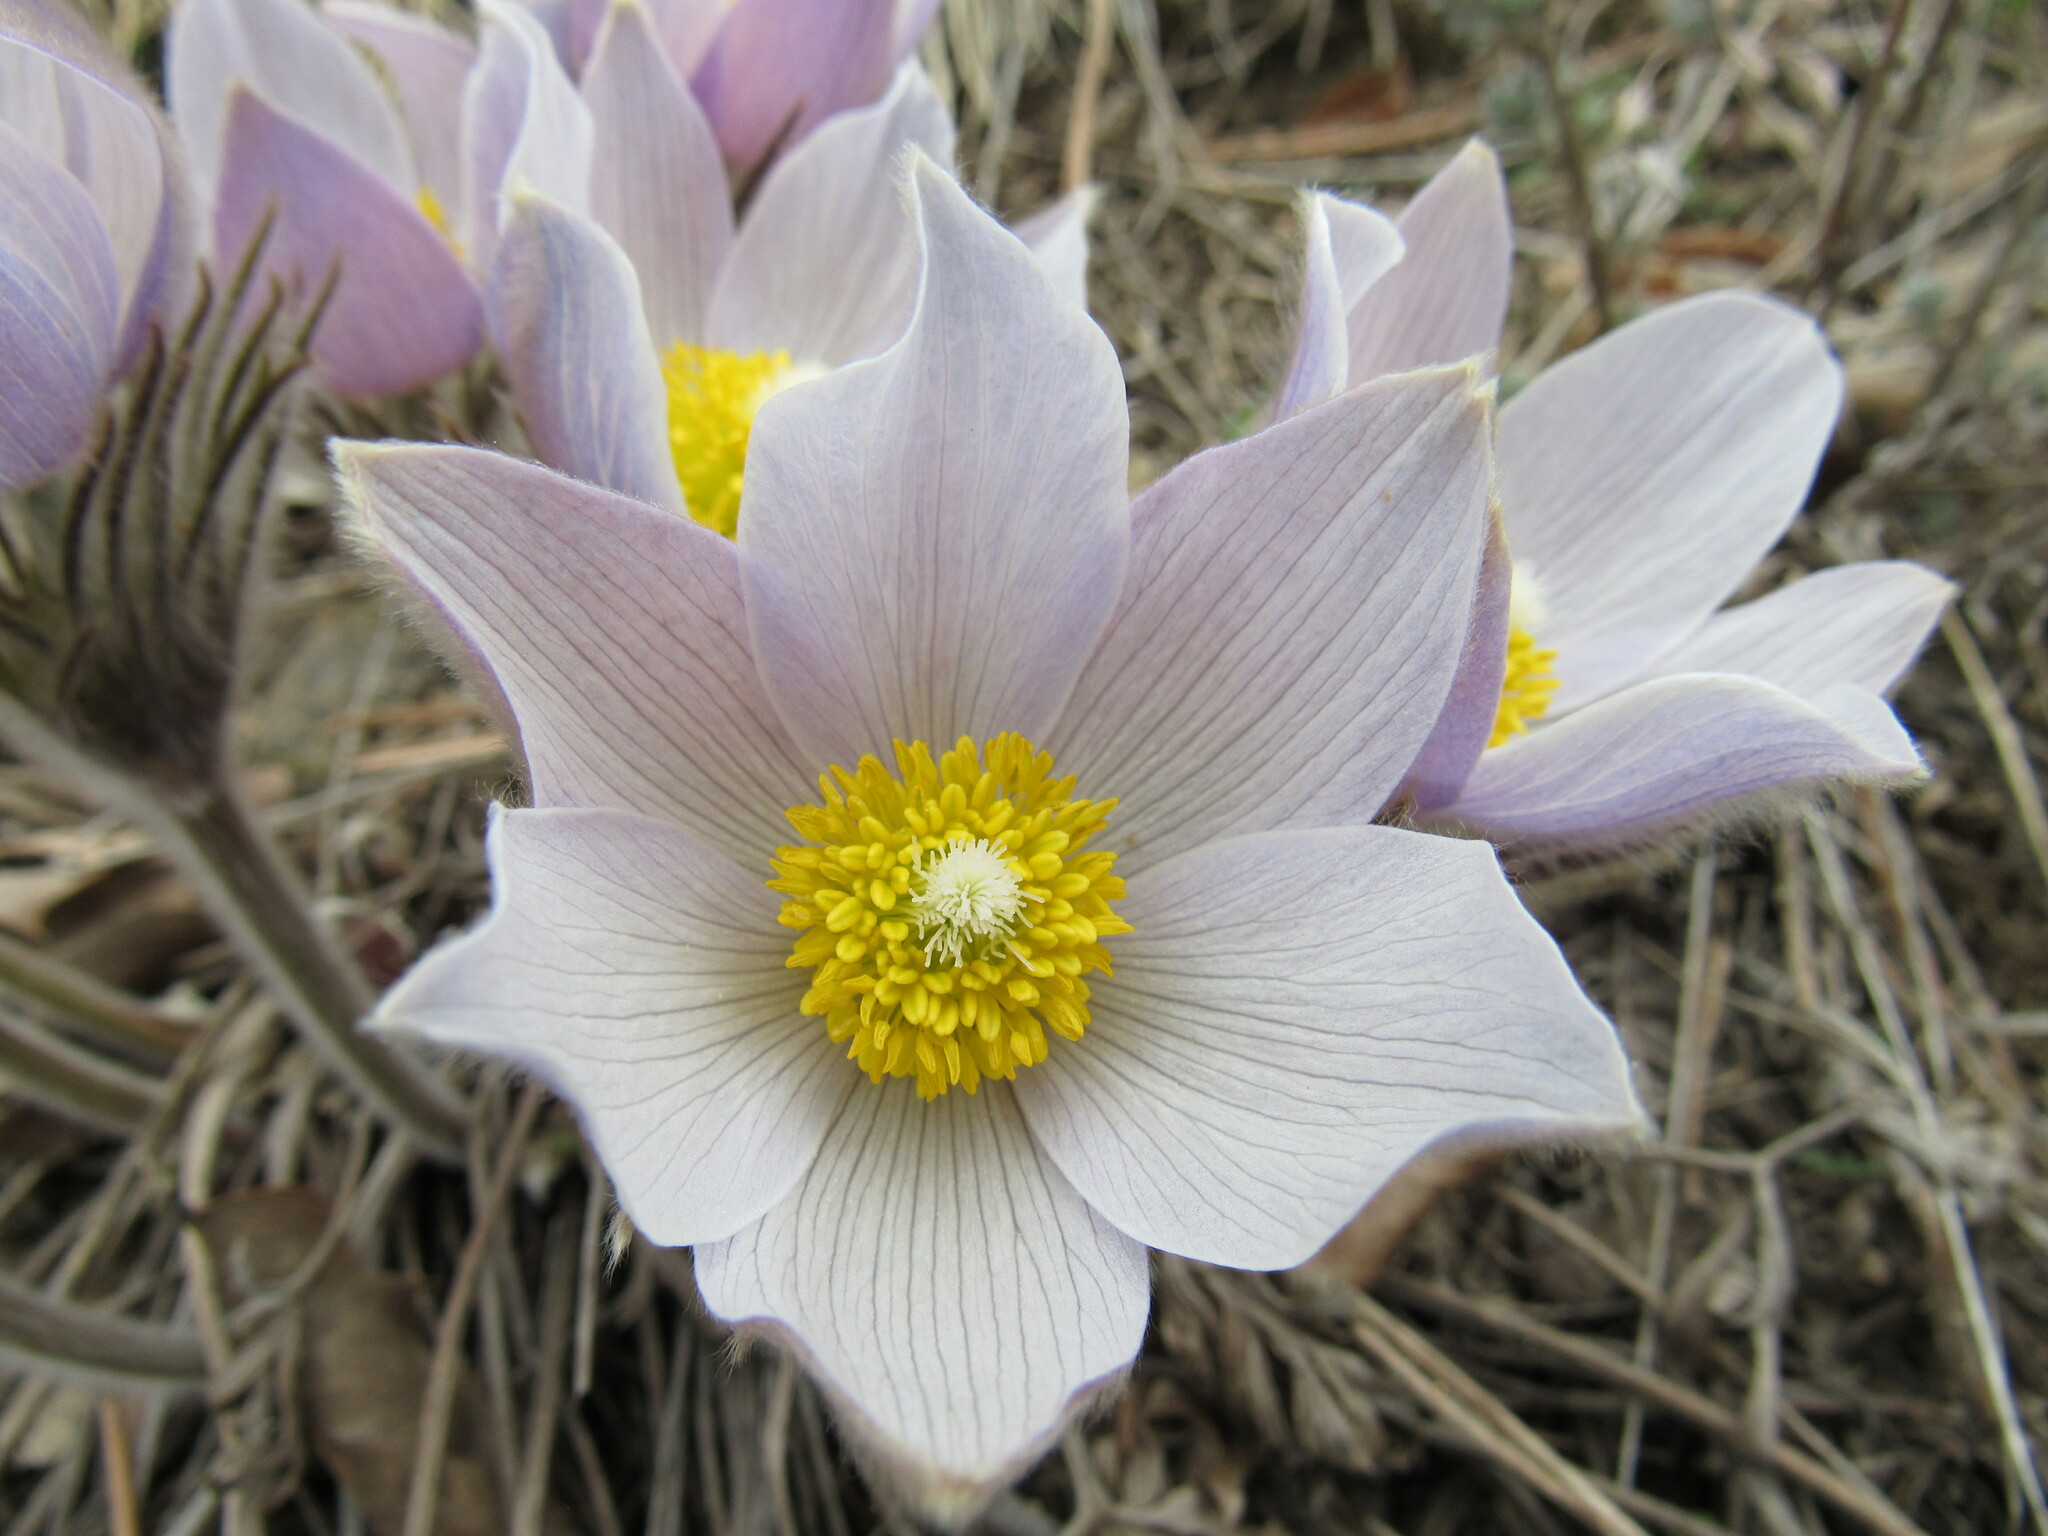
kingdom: Plantae
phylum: Tracheophyta
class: Magnoliopsida
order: Ranunculales
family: Ranunculaceae
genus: Pulsatilla
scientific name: Pulsatilla nuttalliana
